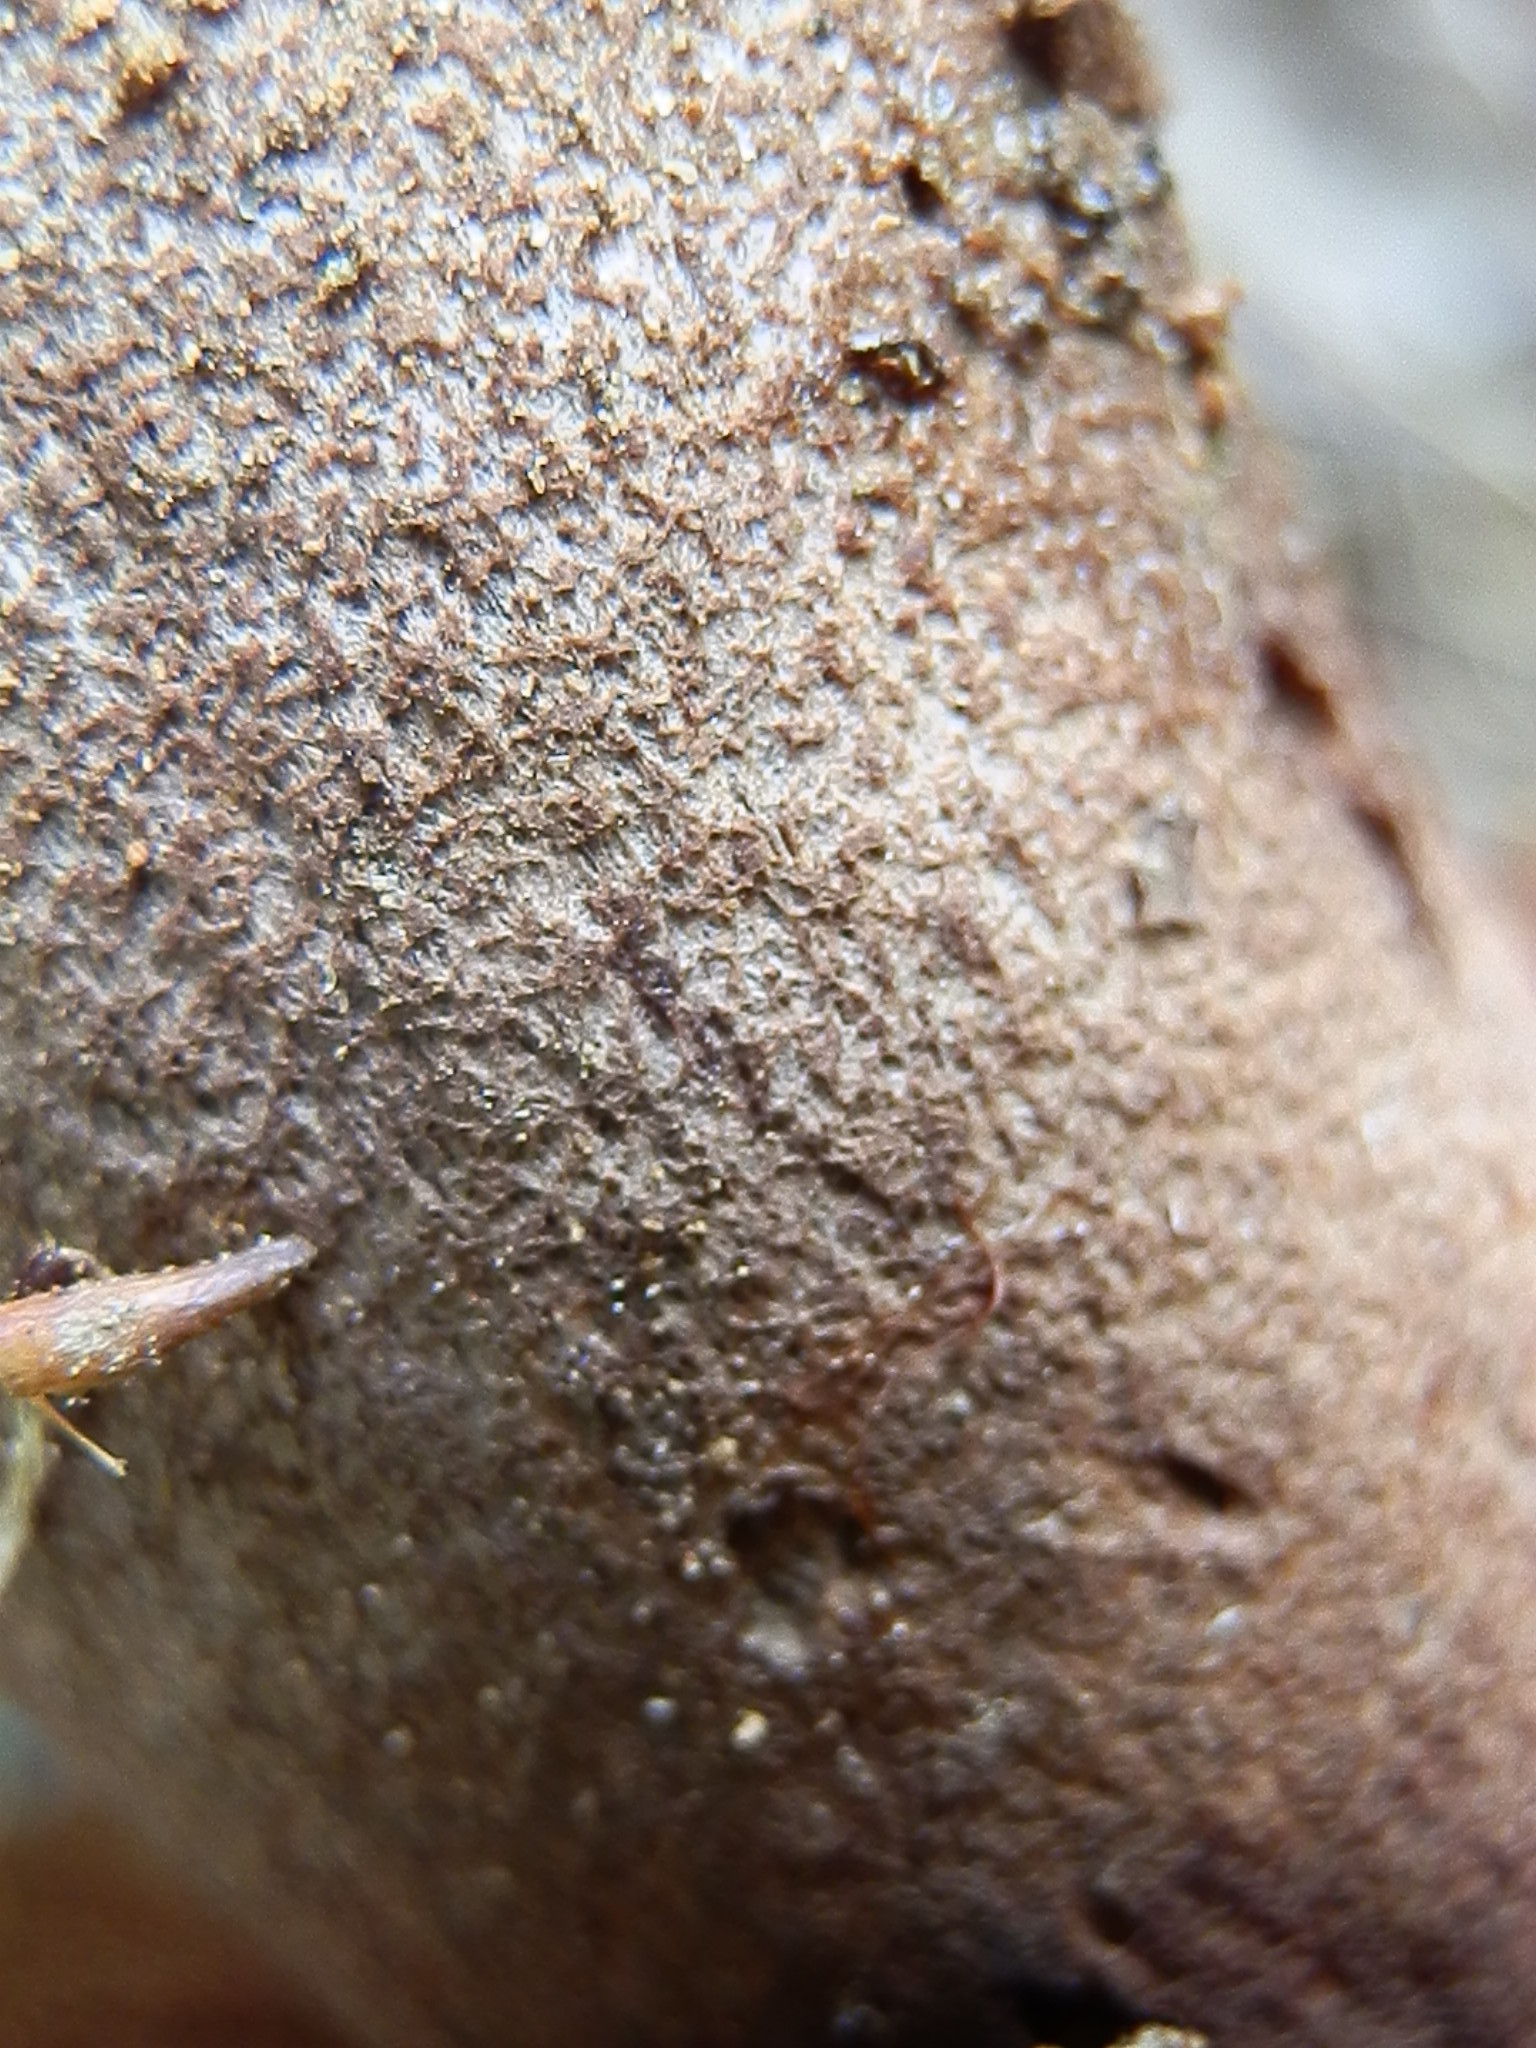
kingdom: Fungi
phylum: Basidiomycota
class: Agaricomycetes
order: Boletales
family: Boletaceae
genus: Sutorius
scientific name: Sutorius eximius
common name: Lilac-brown bolete
